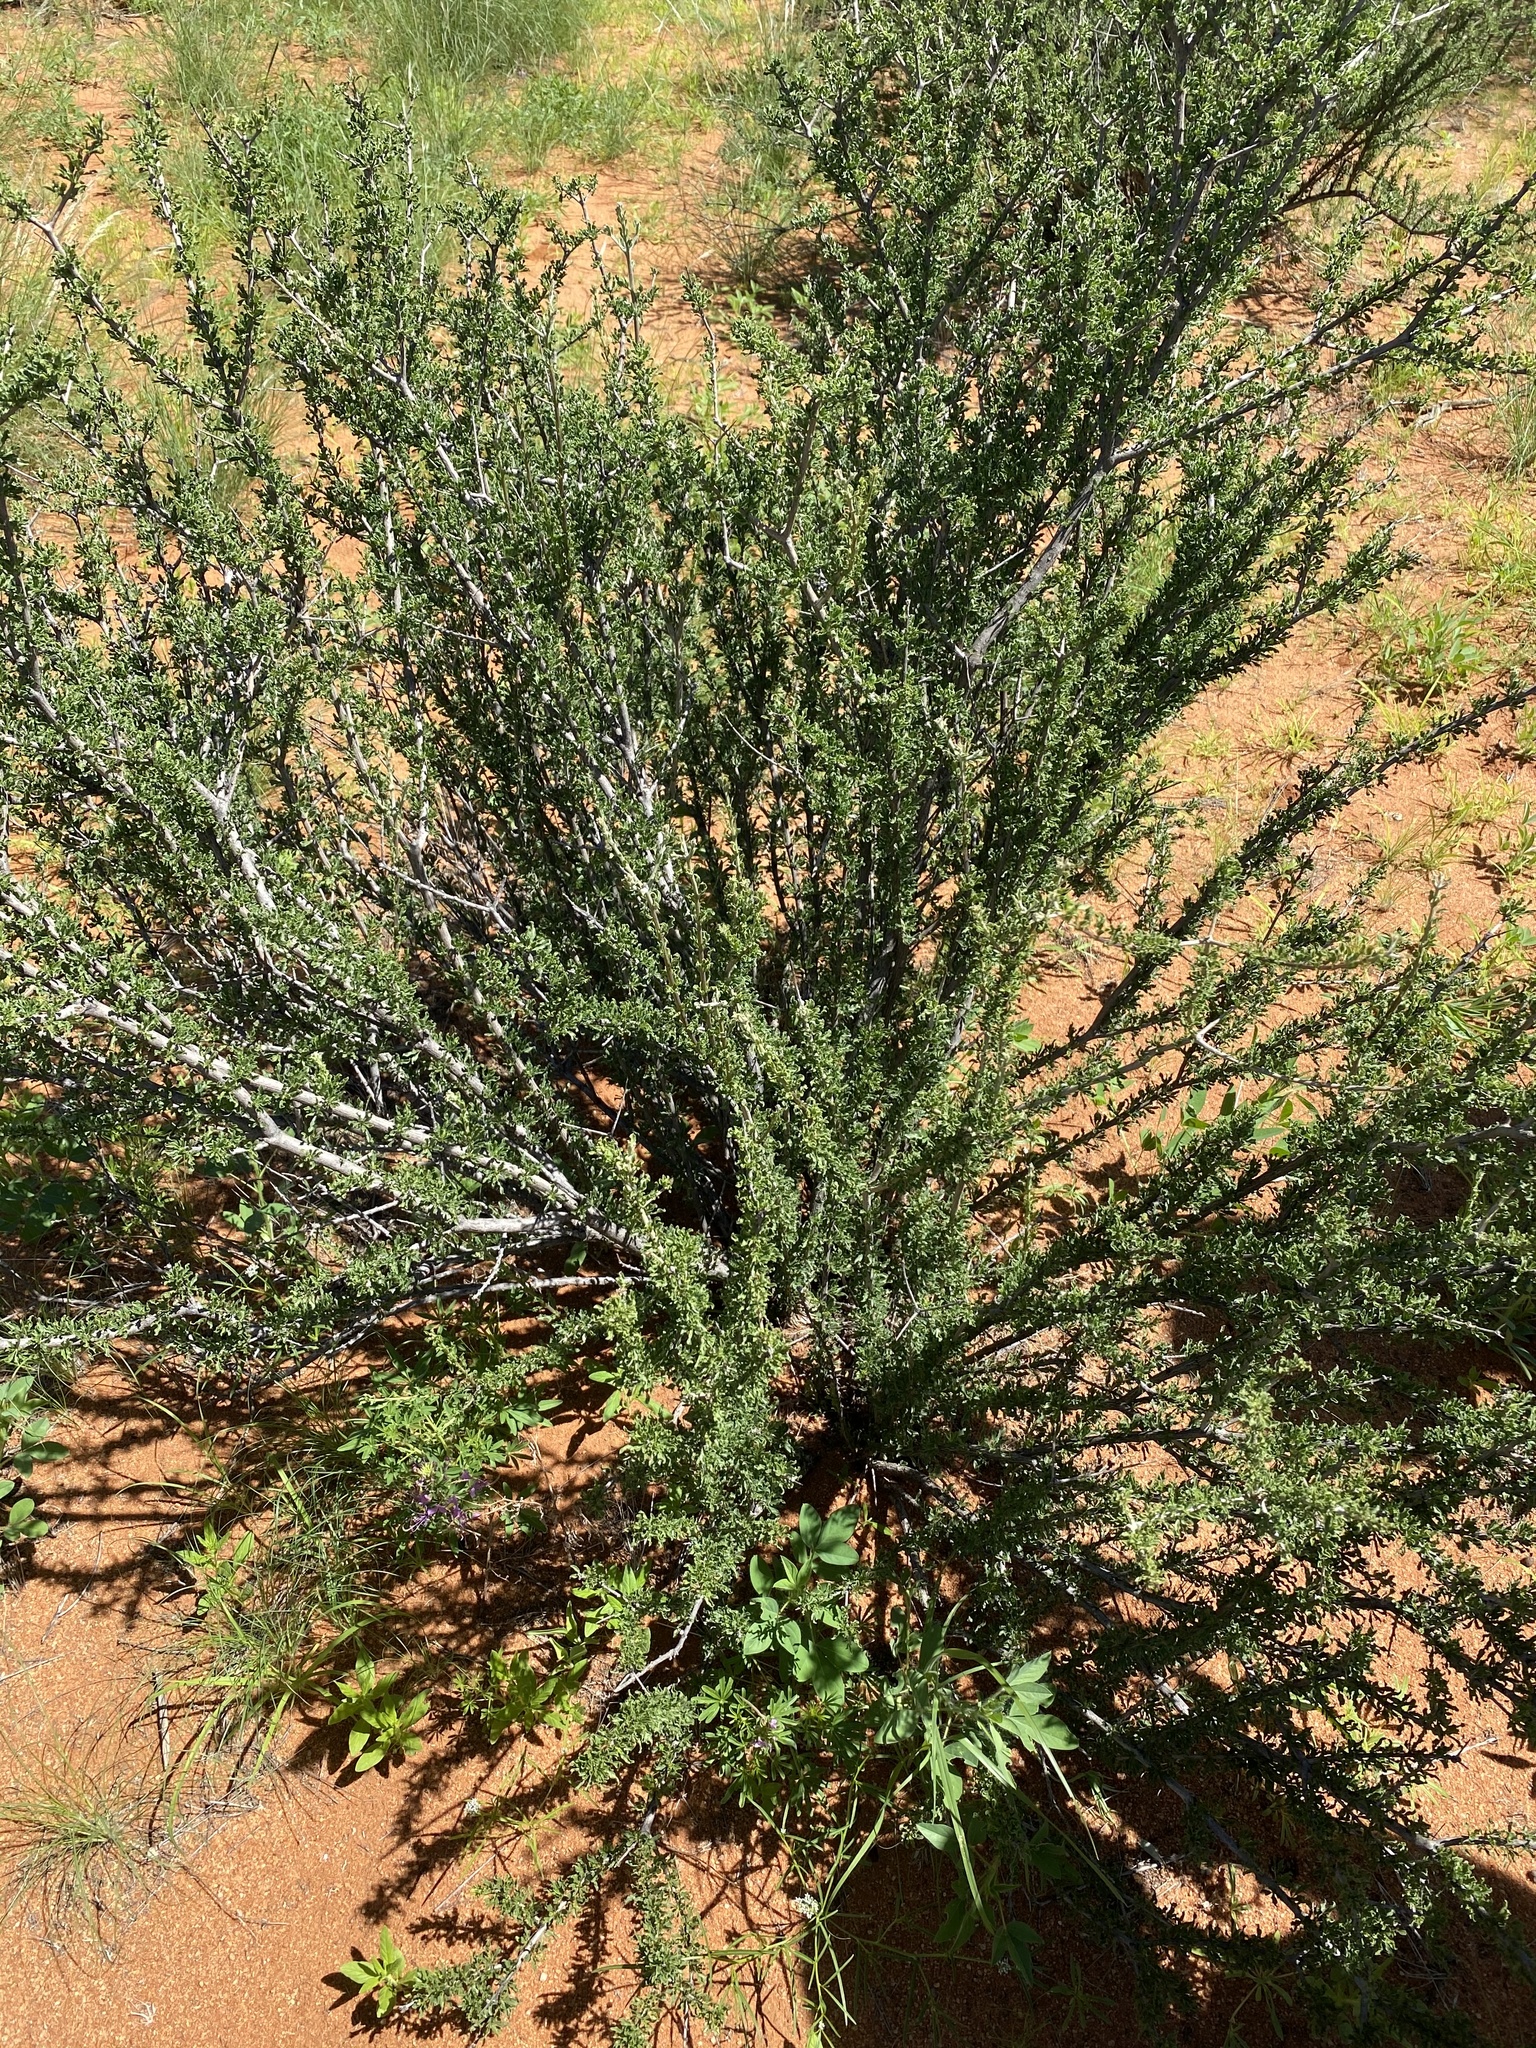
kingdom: Plantae
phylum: Tracheophyta
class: Magnoliopsida
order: Lamiales
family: Bignoniaceae
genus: Rhigozum
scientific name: Rhigozum trichotomum
